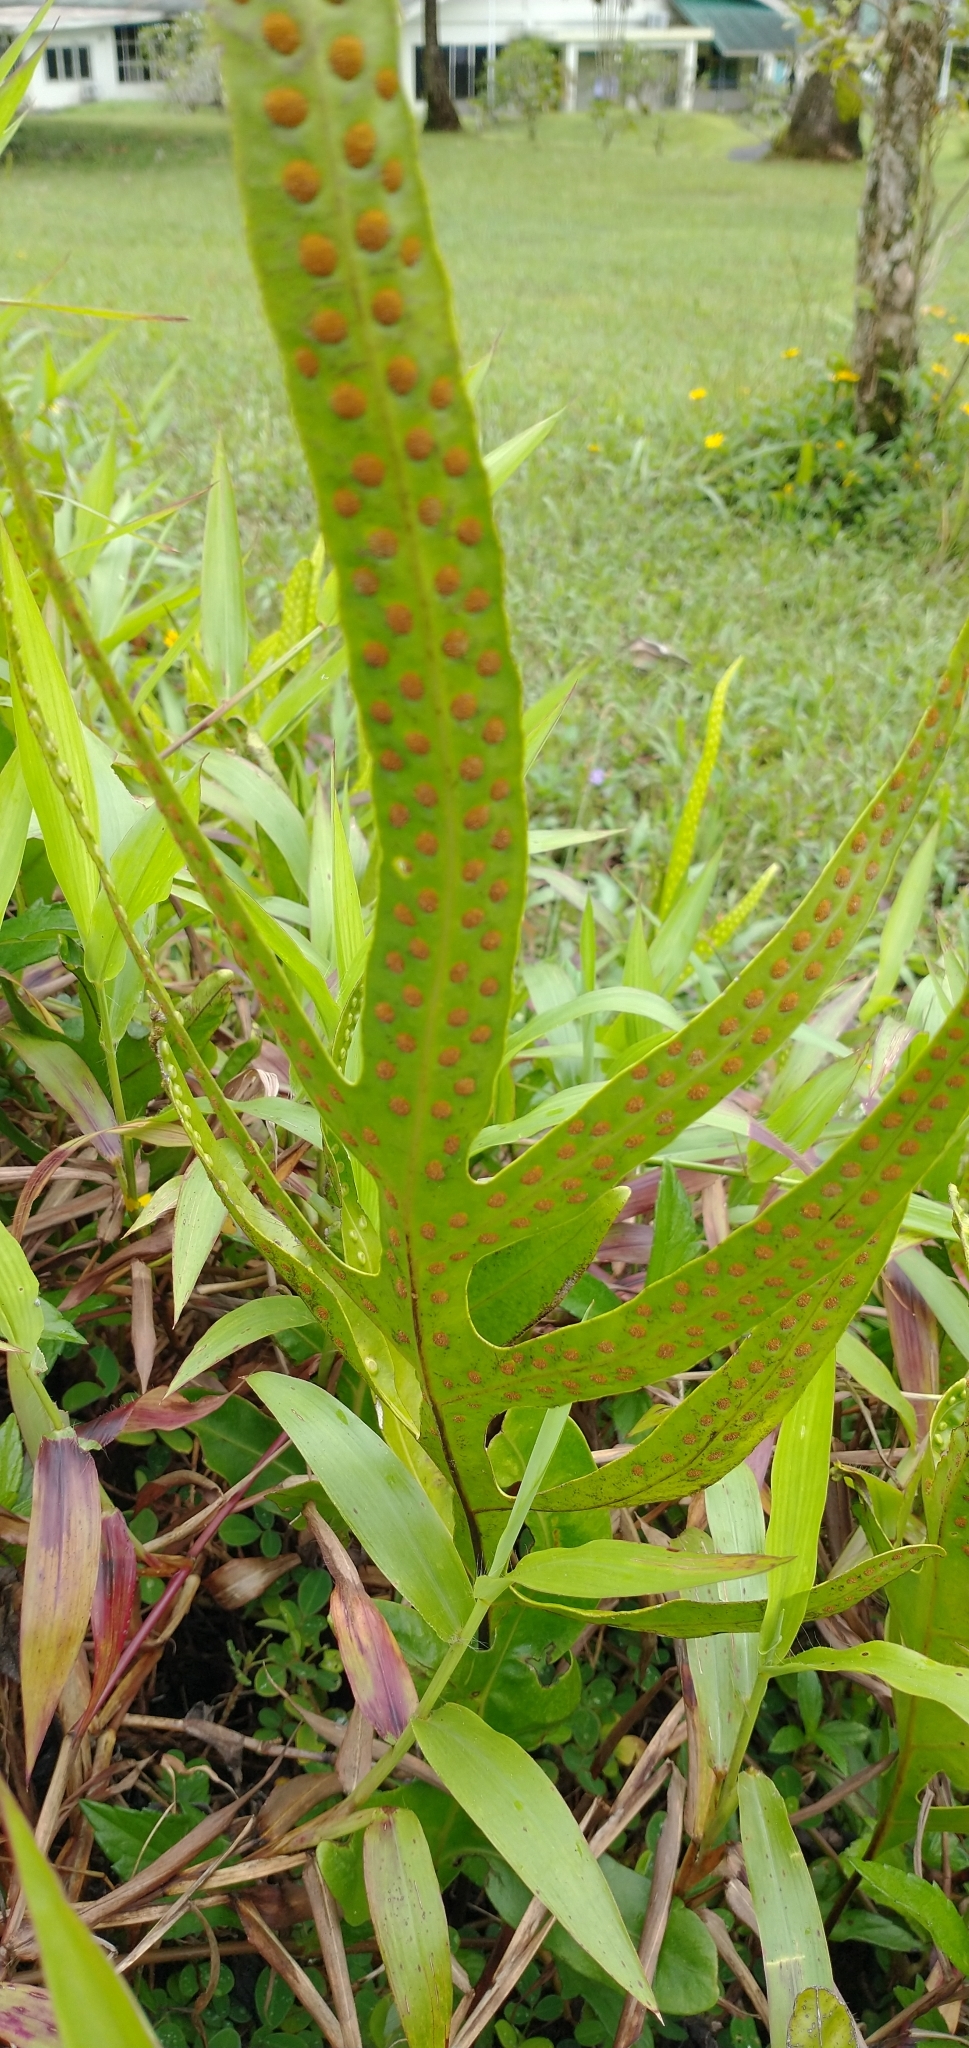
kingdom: Plantae
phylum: Tracheophyta
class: Polypodiopsida
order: Polypodiales
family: Polypodiaceae
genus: Microsorum
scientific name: Microsorum scolopendria
